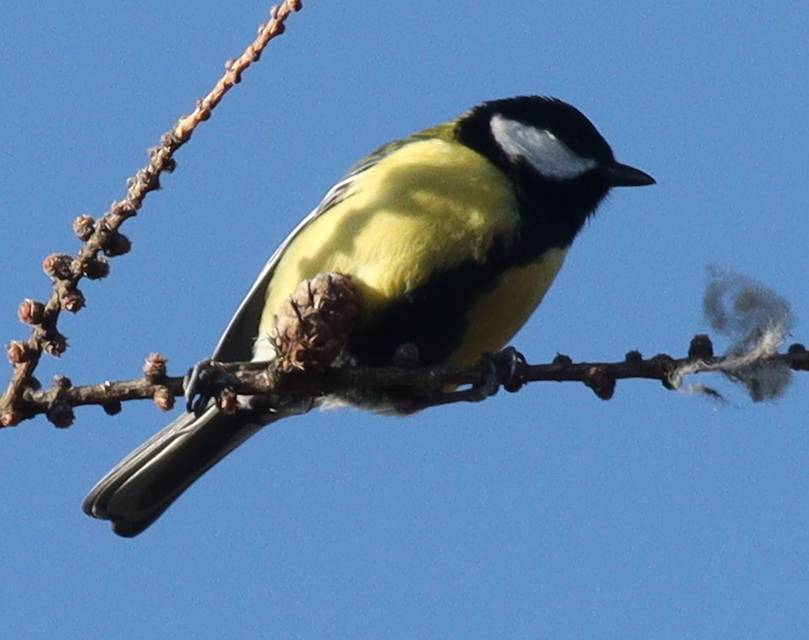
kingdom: Animalia
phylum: Chordata
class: Aves
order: Passeriformes
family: Paridae
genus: Parus
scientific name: Parus major
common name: Great tit
